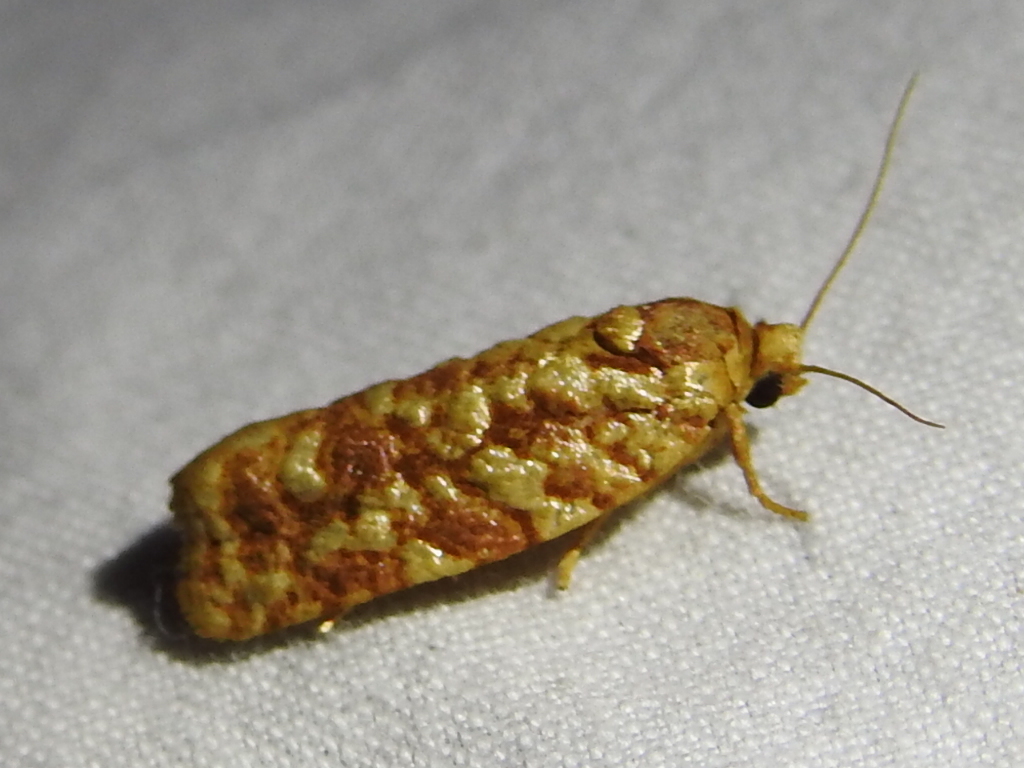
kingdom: Animalia
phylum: Arthropoda
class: Insecta
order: Lepidoptera
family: Tortricidae
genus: Choristoneura
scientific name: Choristoneura houstonana
